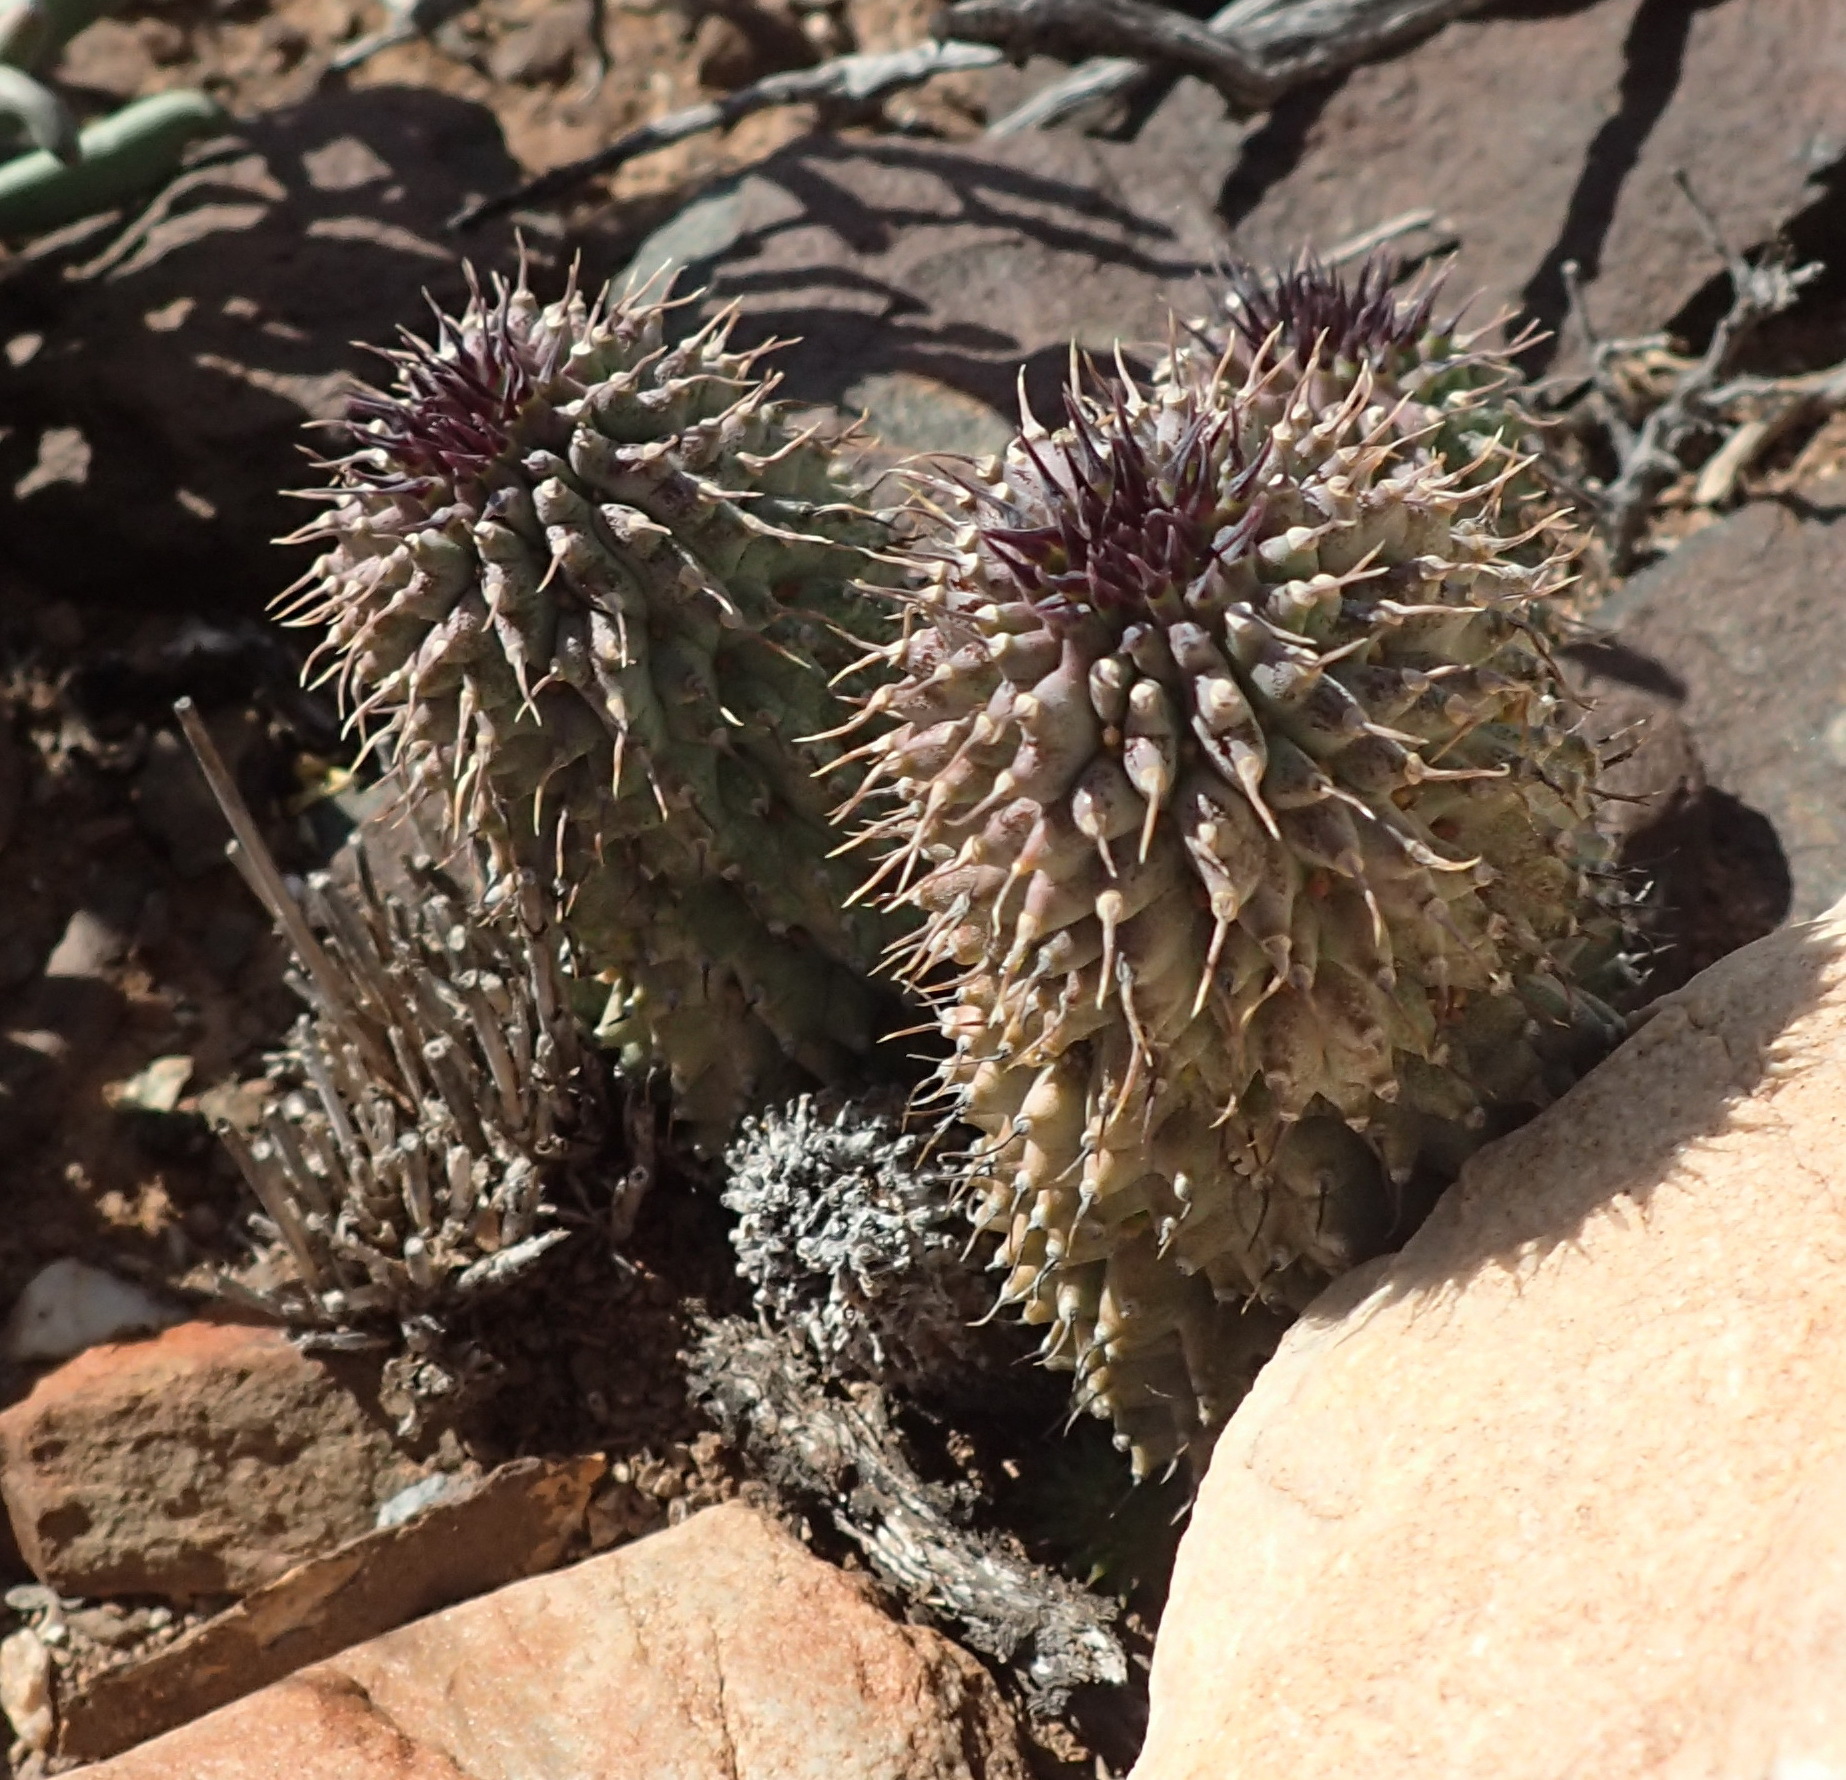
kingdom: Plantae
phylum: Tracheophyta
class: Magnoliopsida
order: Gentianales
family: Apocynaceae
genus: Ceropegia
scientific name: Ceropegia pilifera
